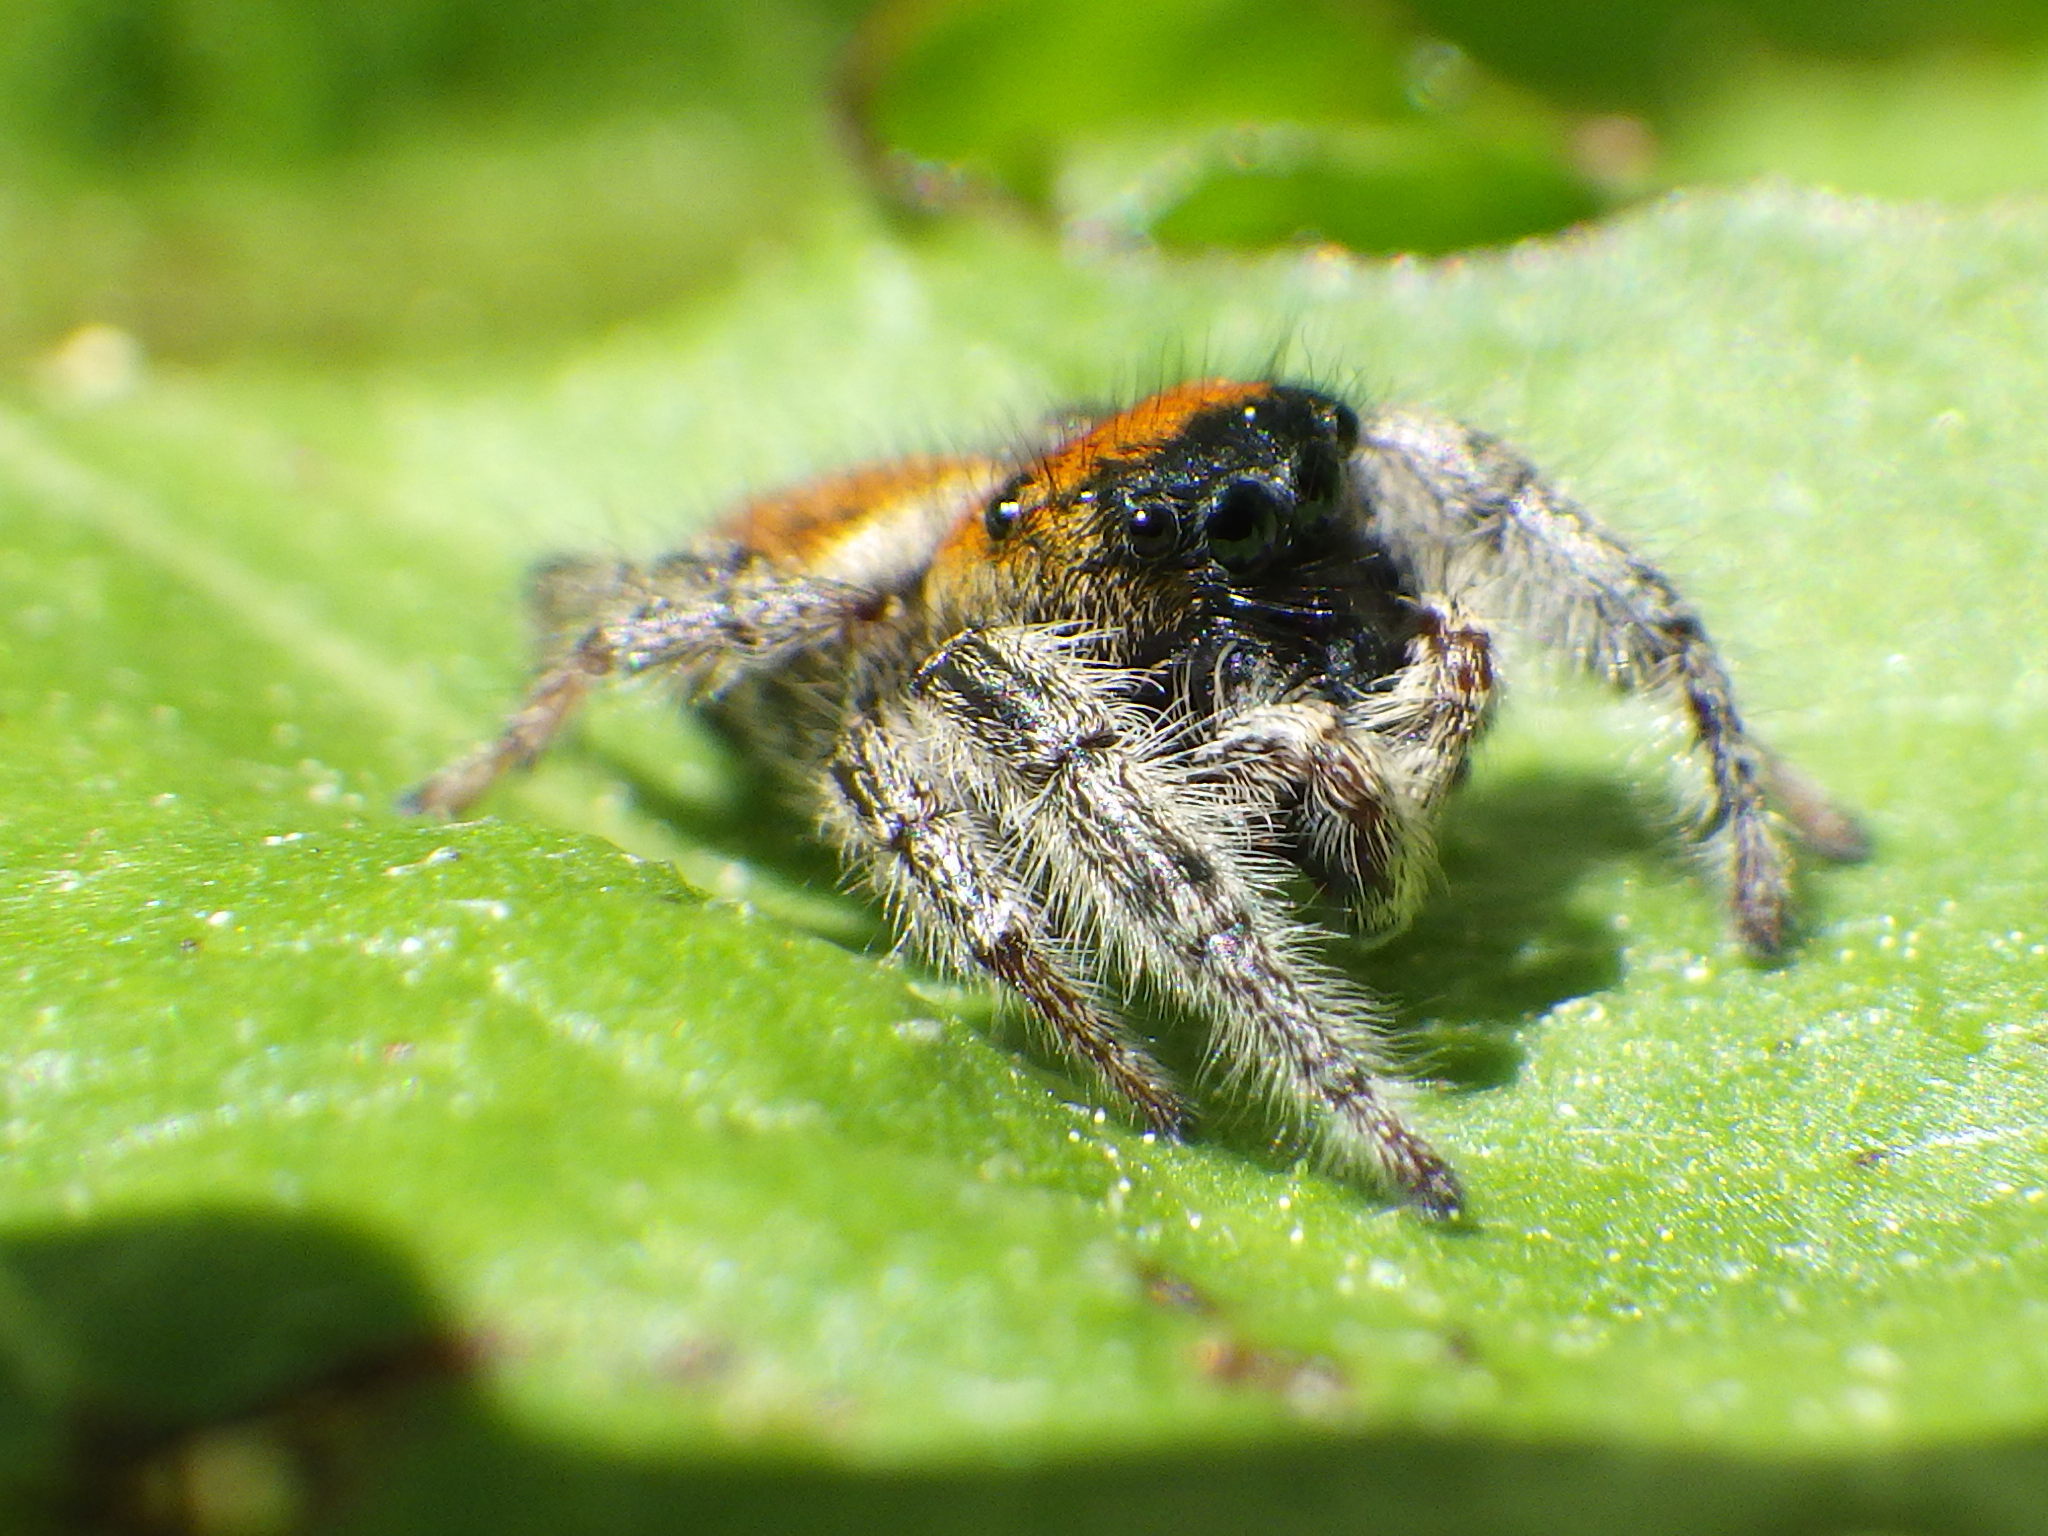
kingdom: Animalia
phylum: Arthropoda
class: Arachnida
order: Araneae
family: Salticidae
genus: Phidippus
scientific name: Phidippus whitmani
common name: Whitman's jumping spider
